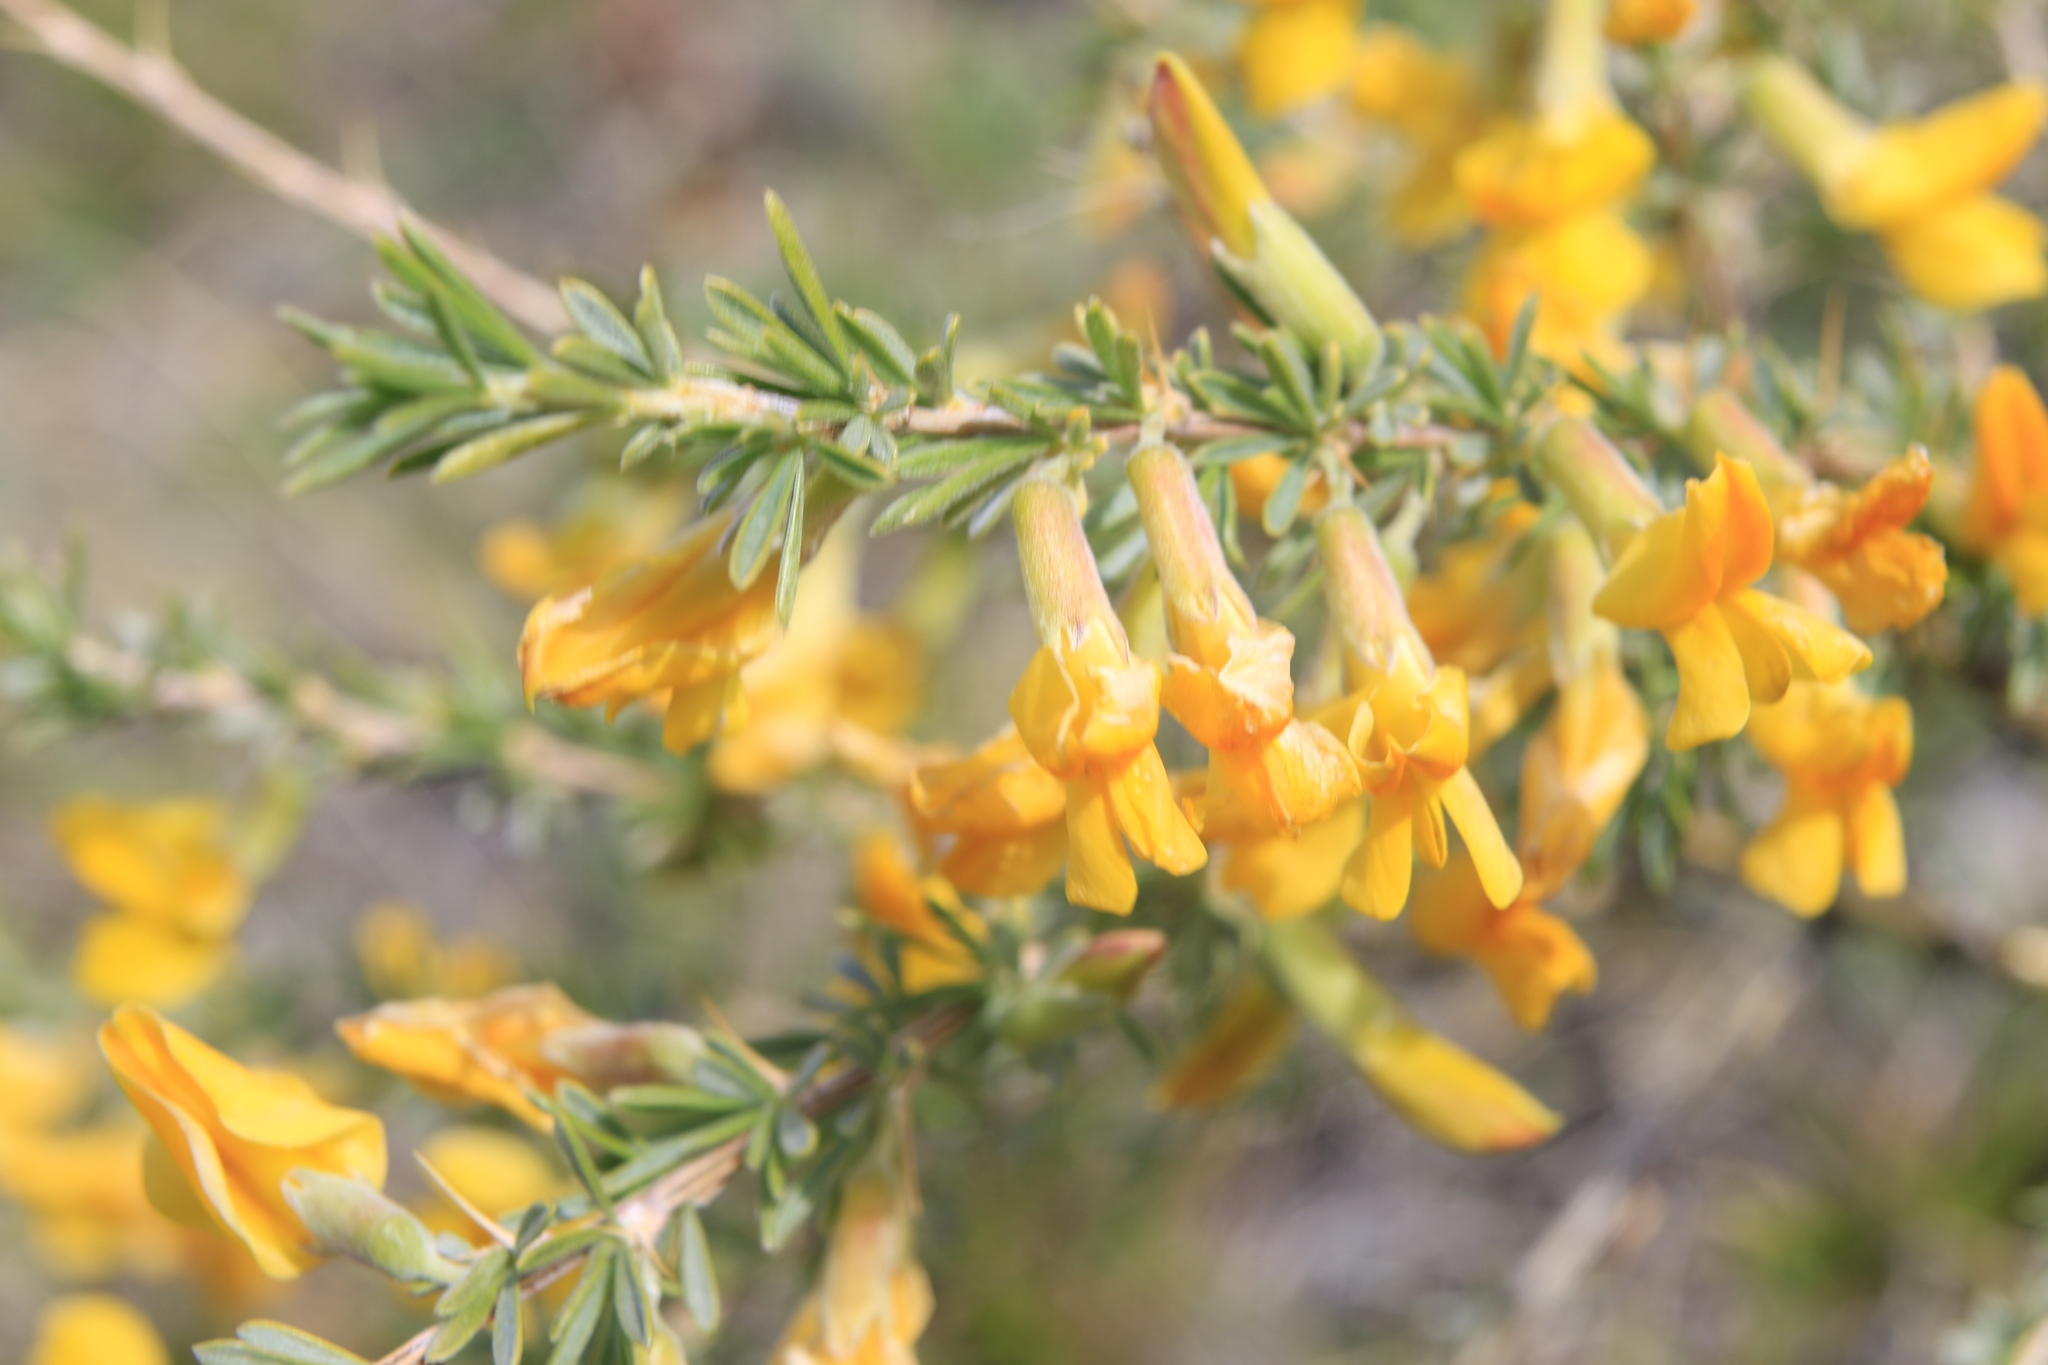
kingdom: Plantae
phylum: Tracheophyta
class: Magnoliopsida
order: Fabales
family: Fabaceae
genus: Caragana
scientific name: Caragana pygmaea
